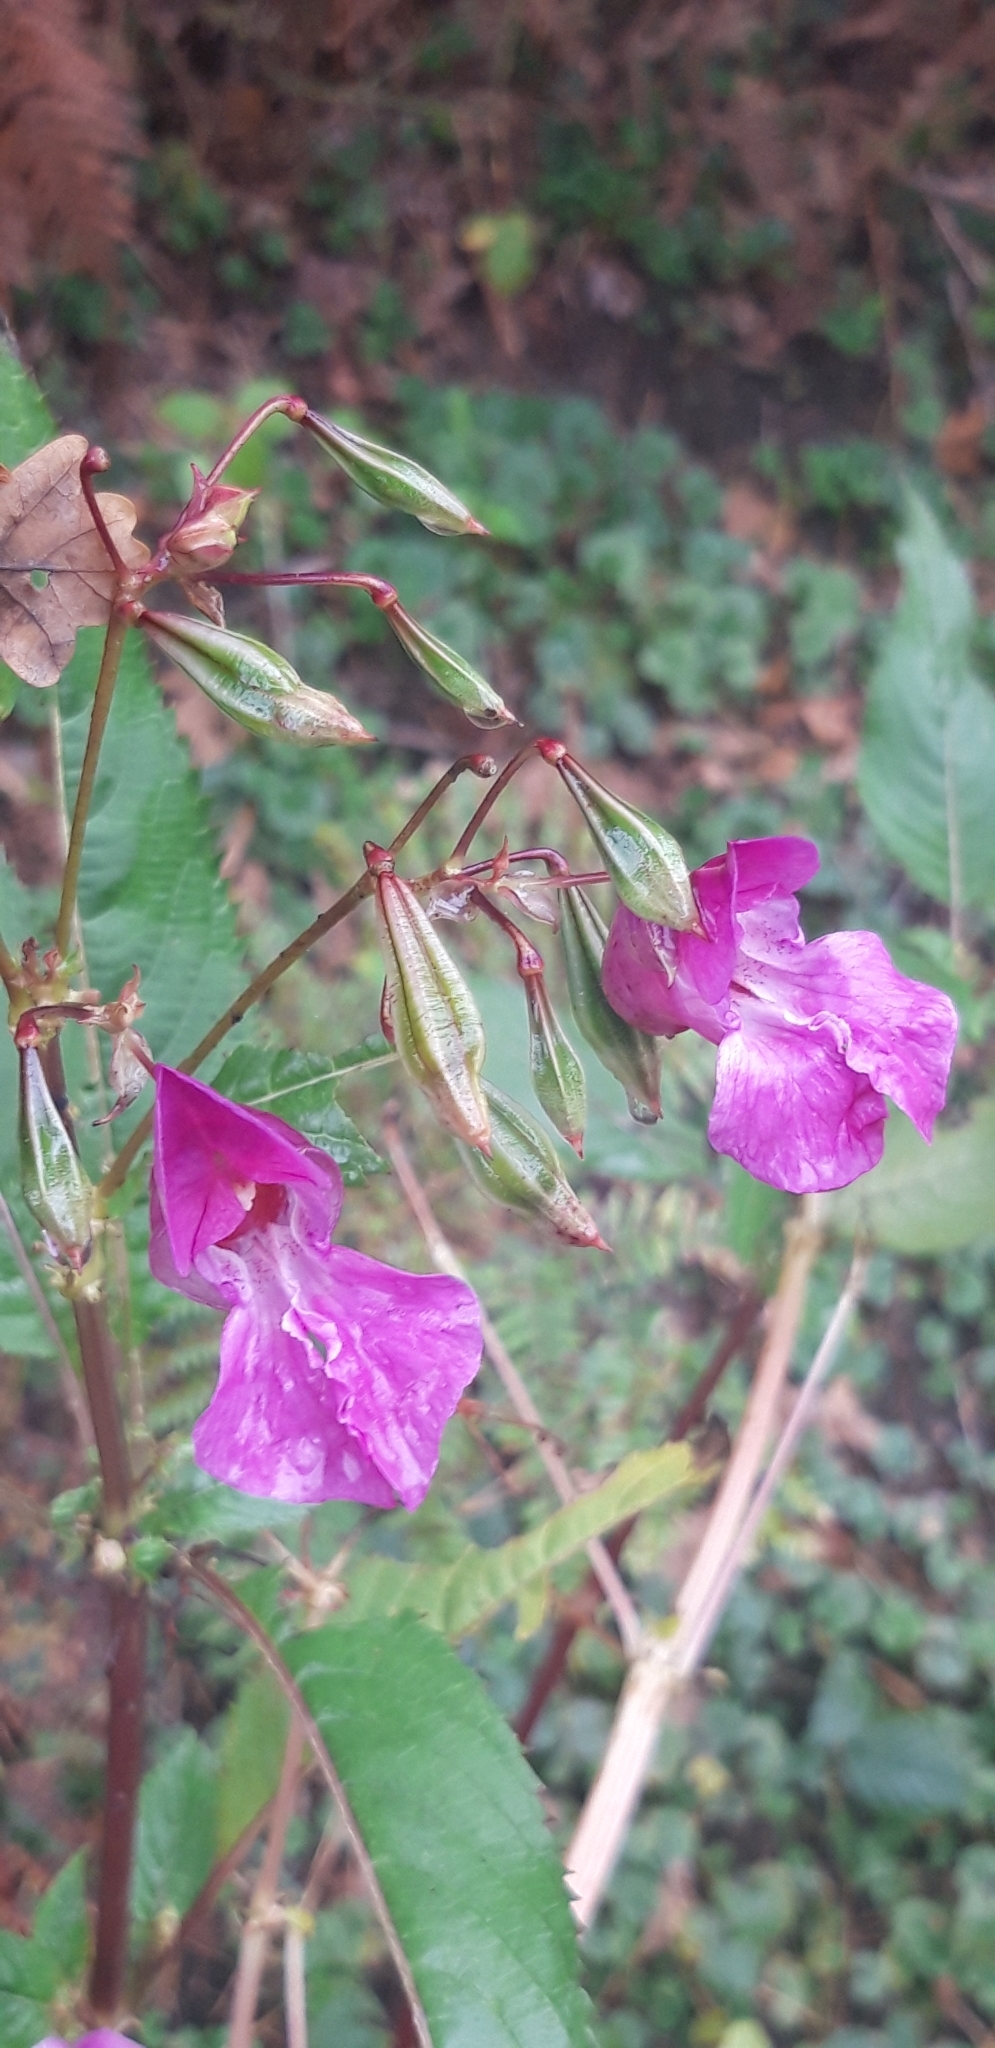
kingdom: Plantae
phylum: Tracheophyta
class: Magnoliopsida
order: Ericales
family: Balsaminaceae
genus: Impatiens
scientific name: Impatiens glandulifera
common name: Himalayan balsam
